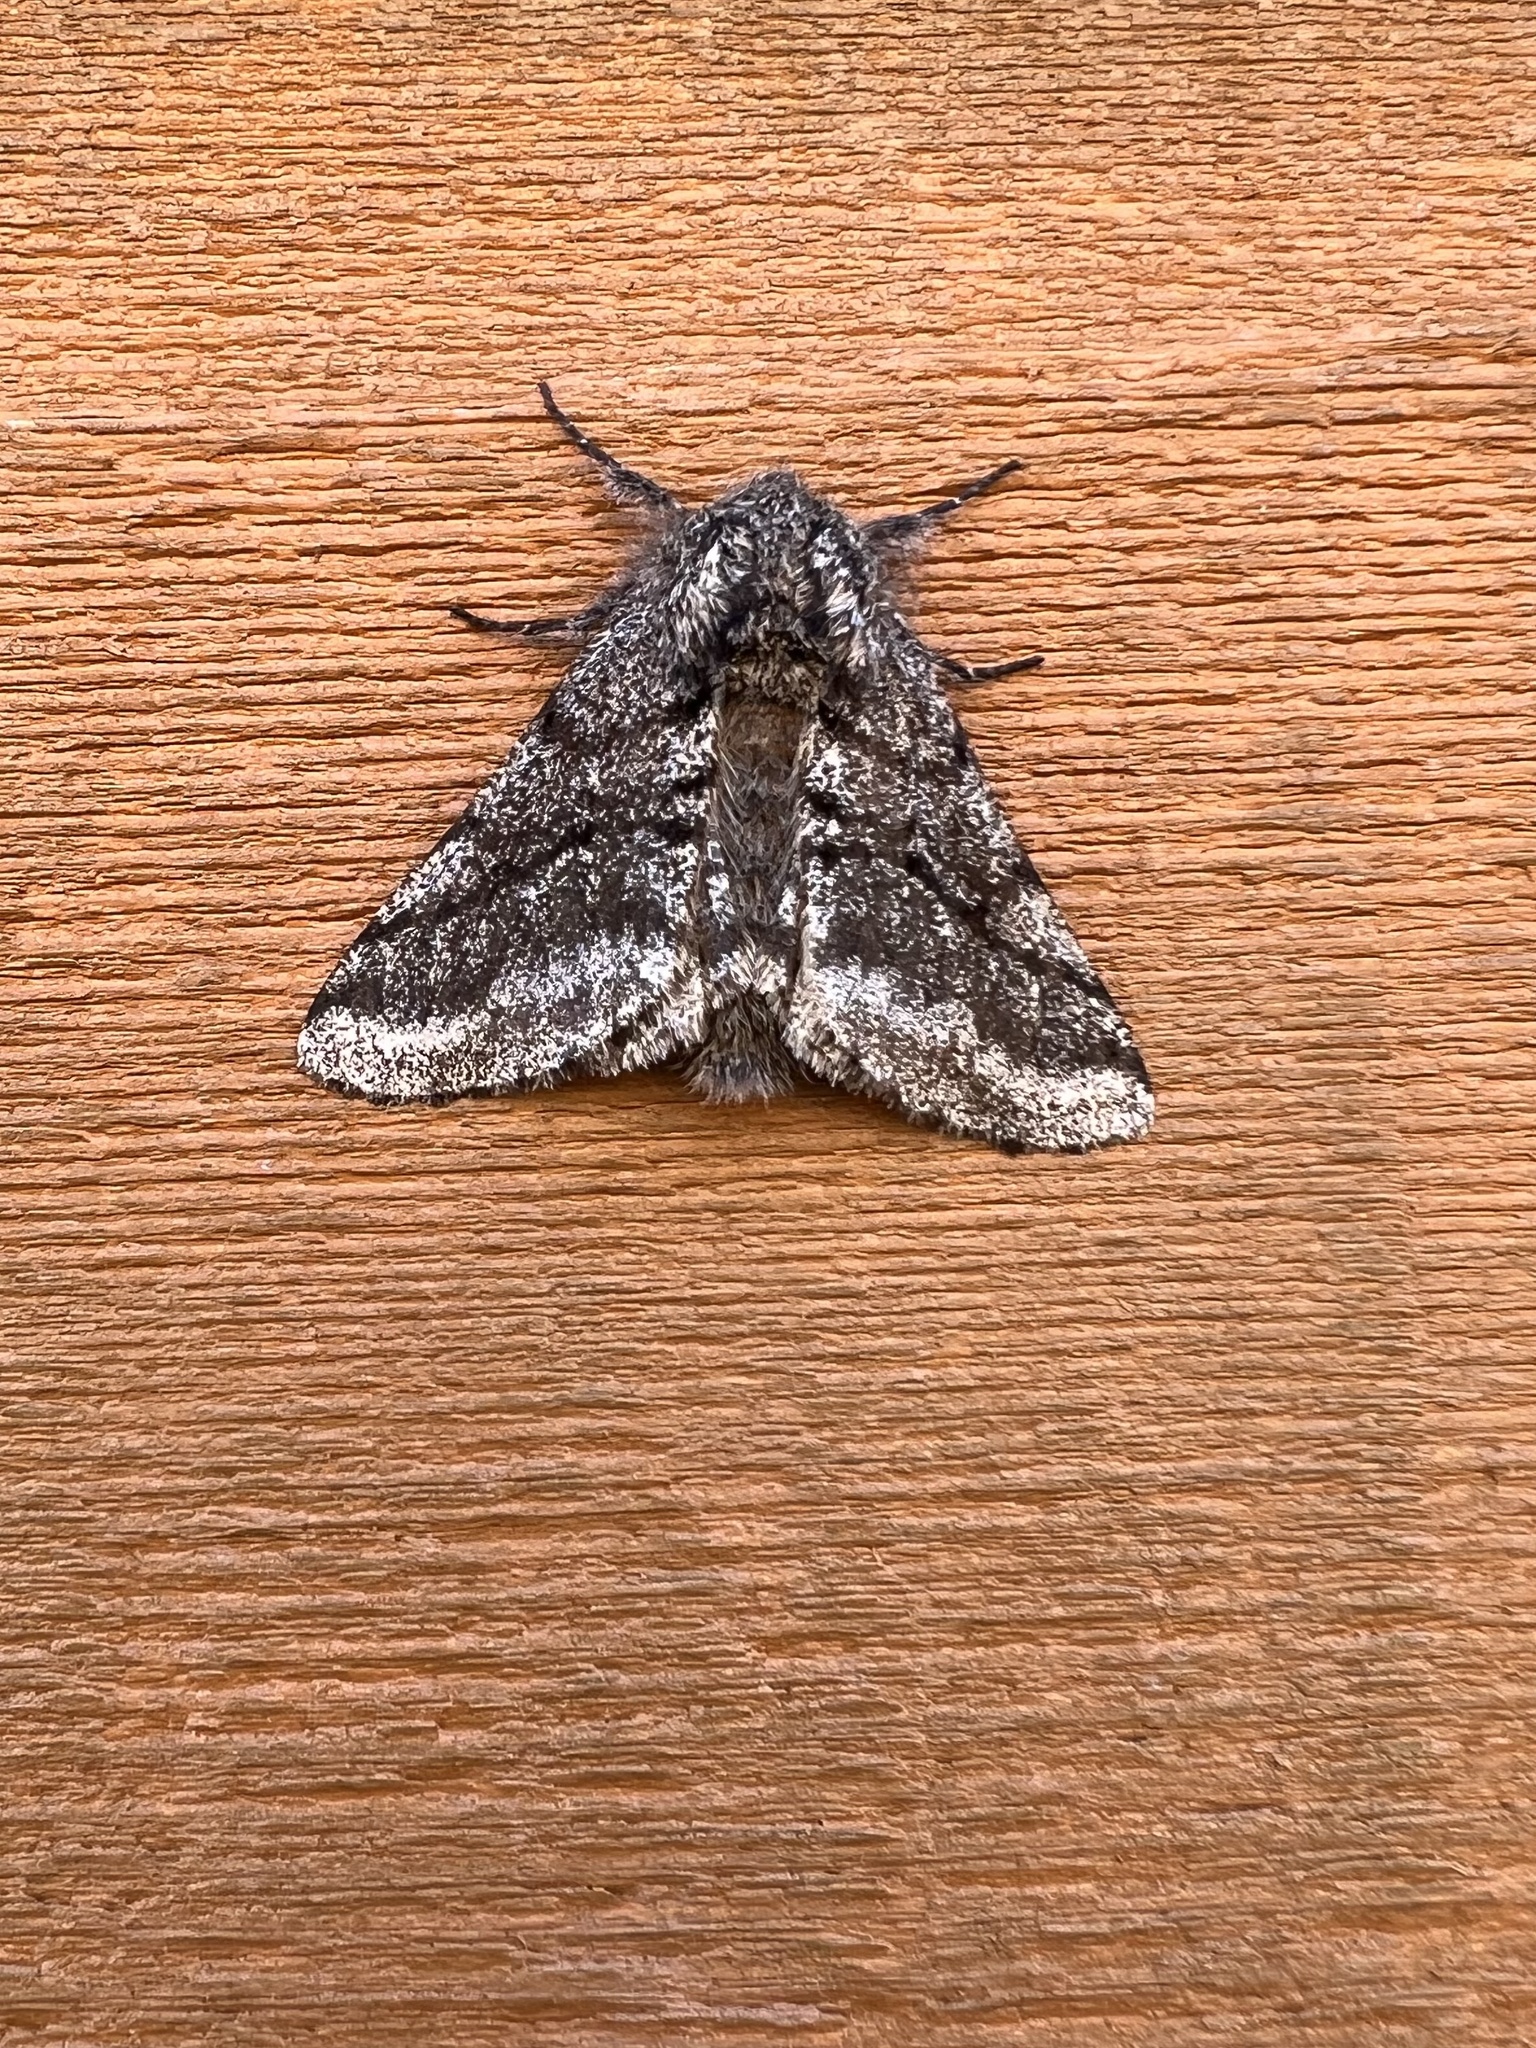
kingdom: Animalia
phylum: Arthropoda
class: Insecta
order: Lepidoptera
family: Geometridae
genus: Lycia
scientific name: Lycia ursaria
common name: Stout spanworm
